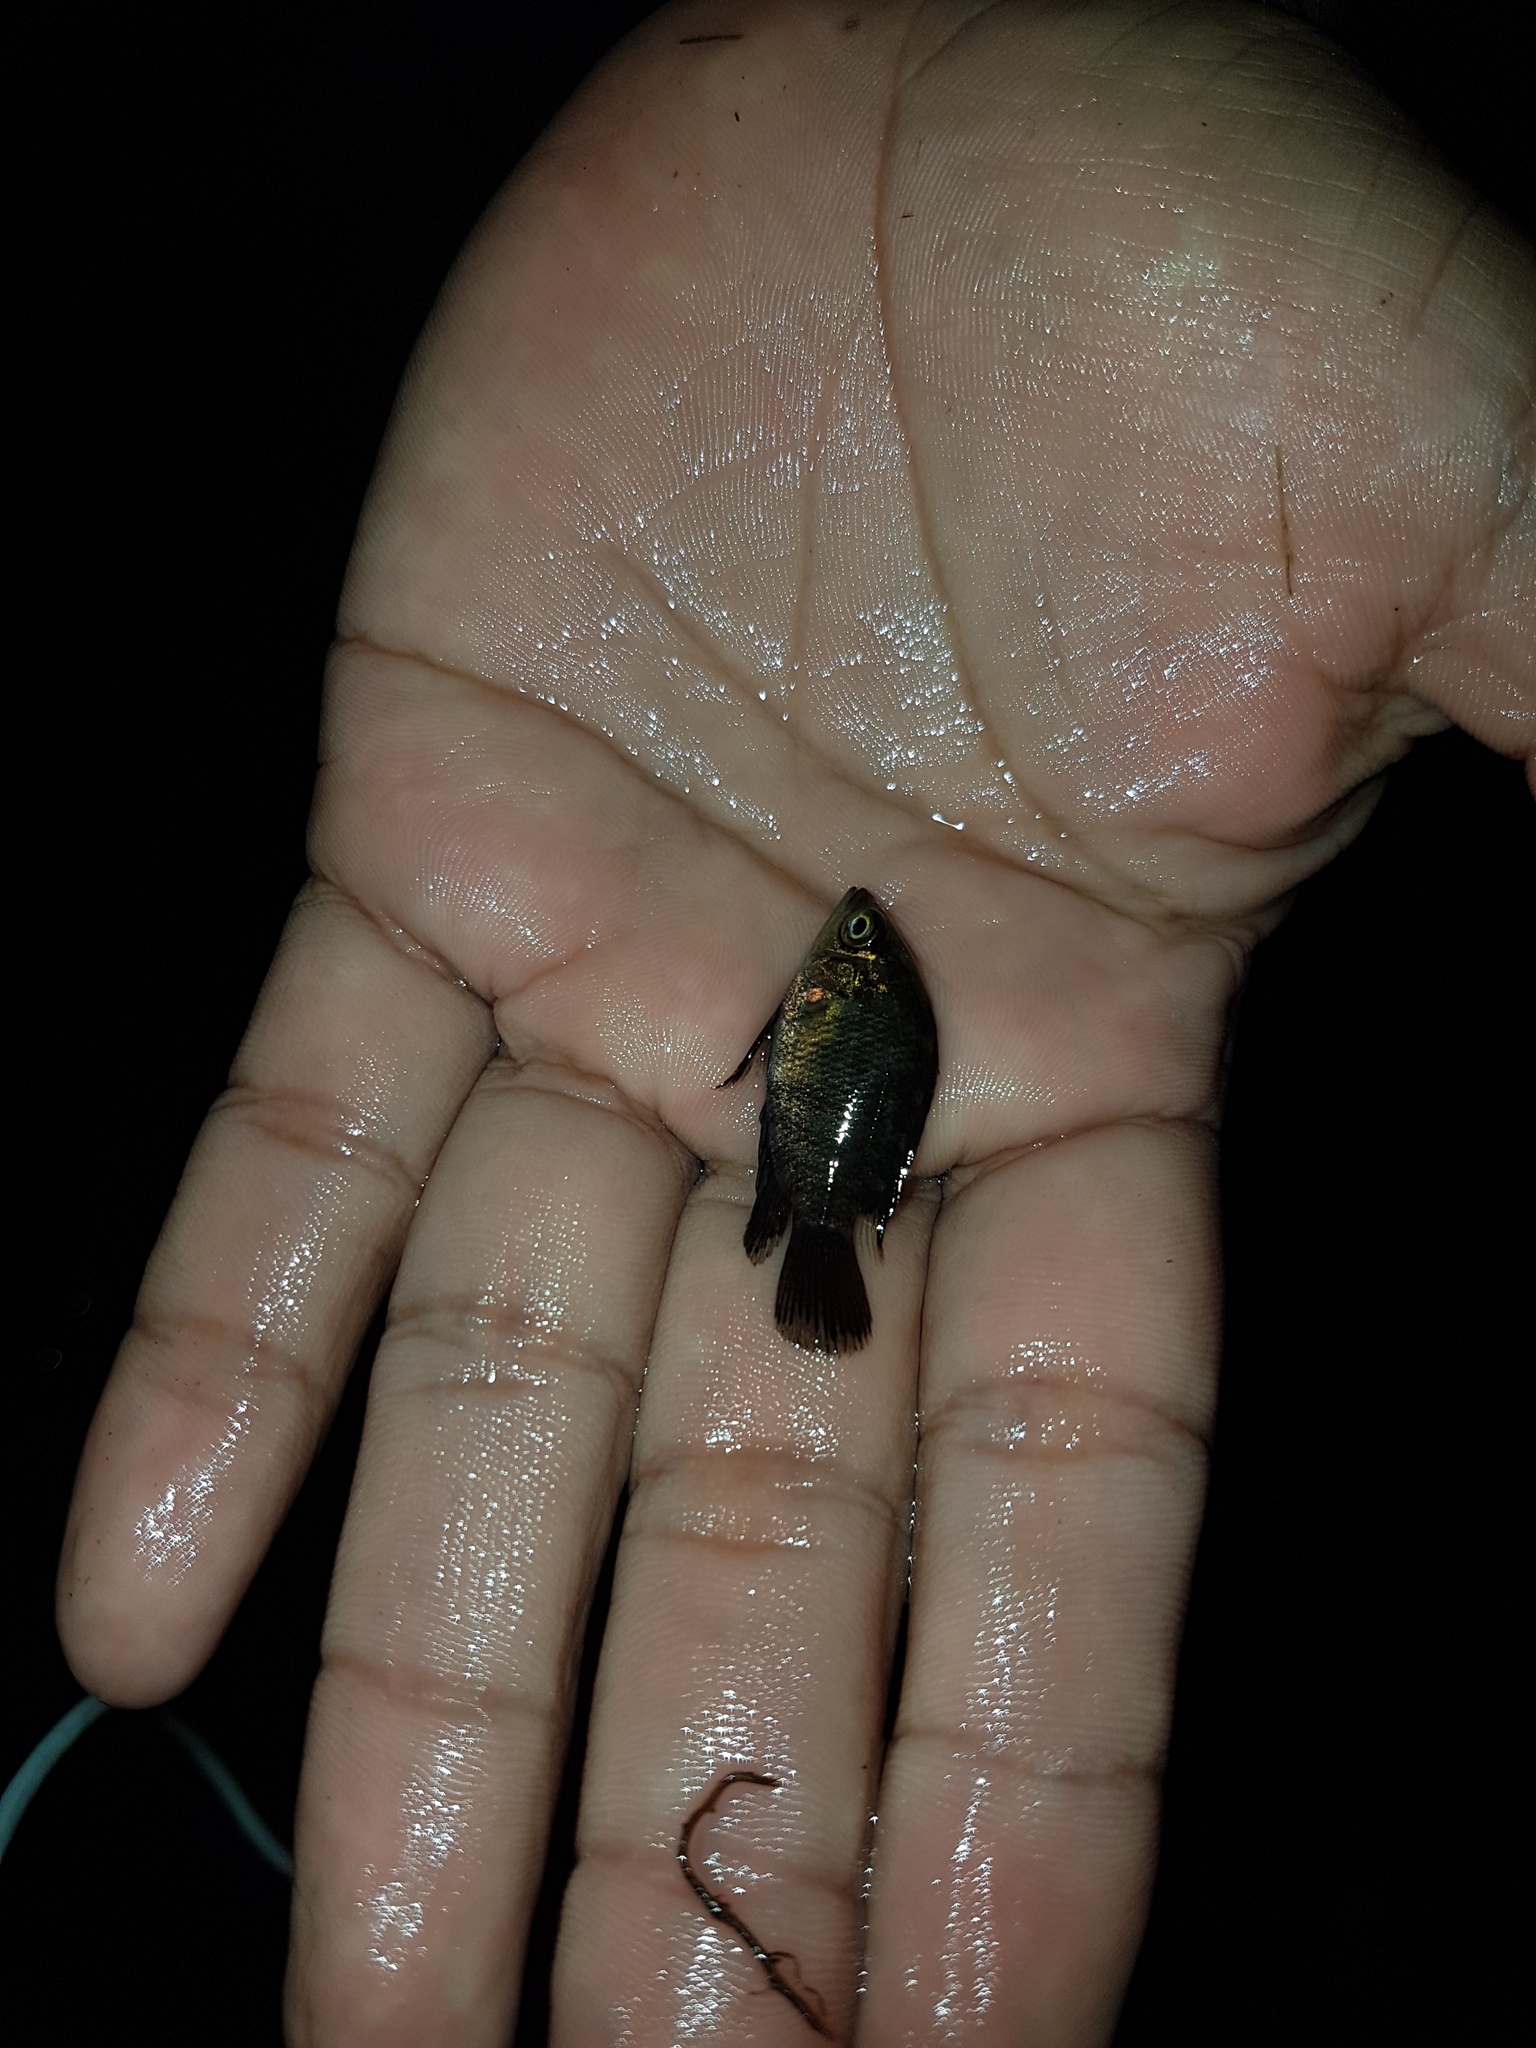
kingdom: Animalia
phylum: Chordata
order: Perciformes
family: Cichlidae
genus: Hypselecara
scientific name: Hypselecara coryphaenoides
